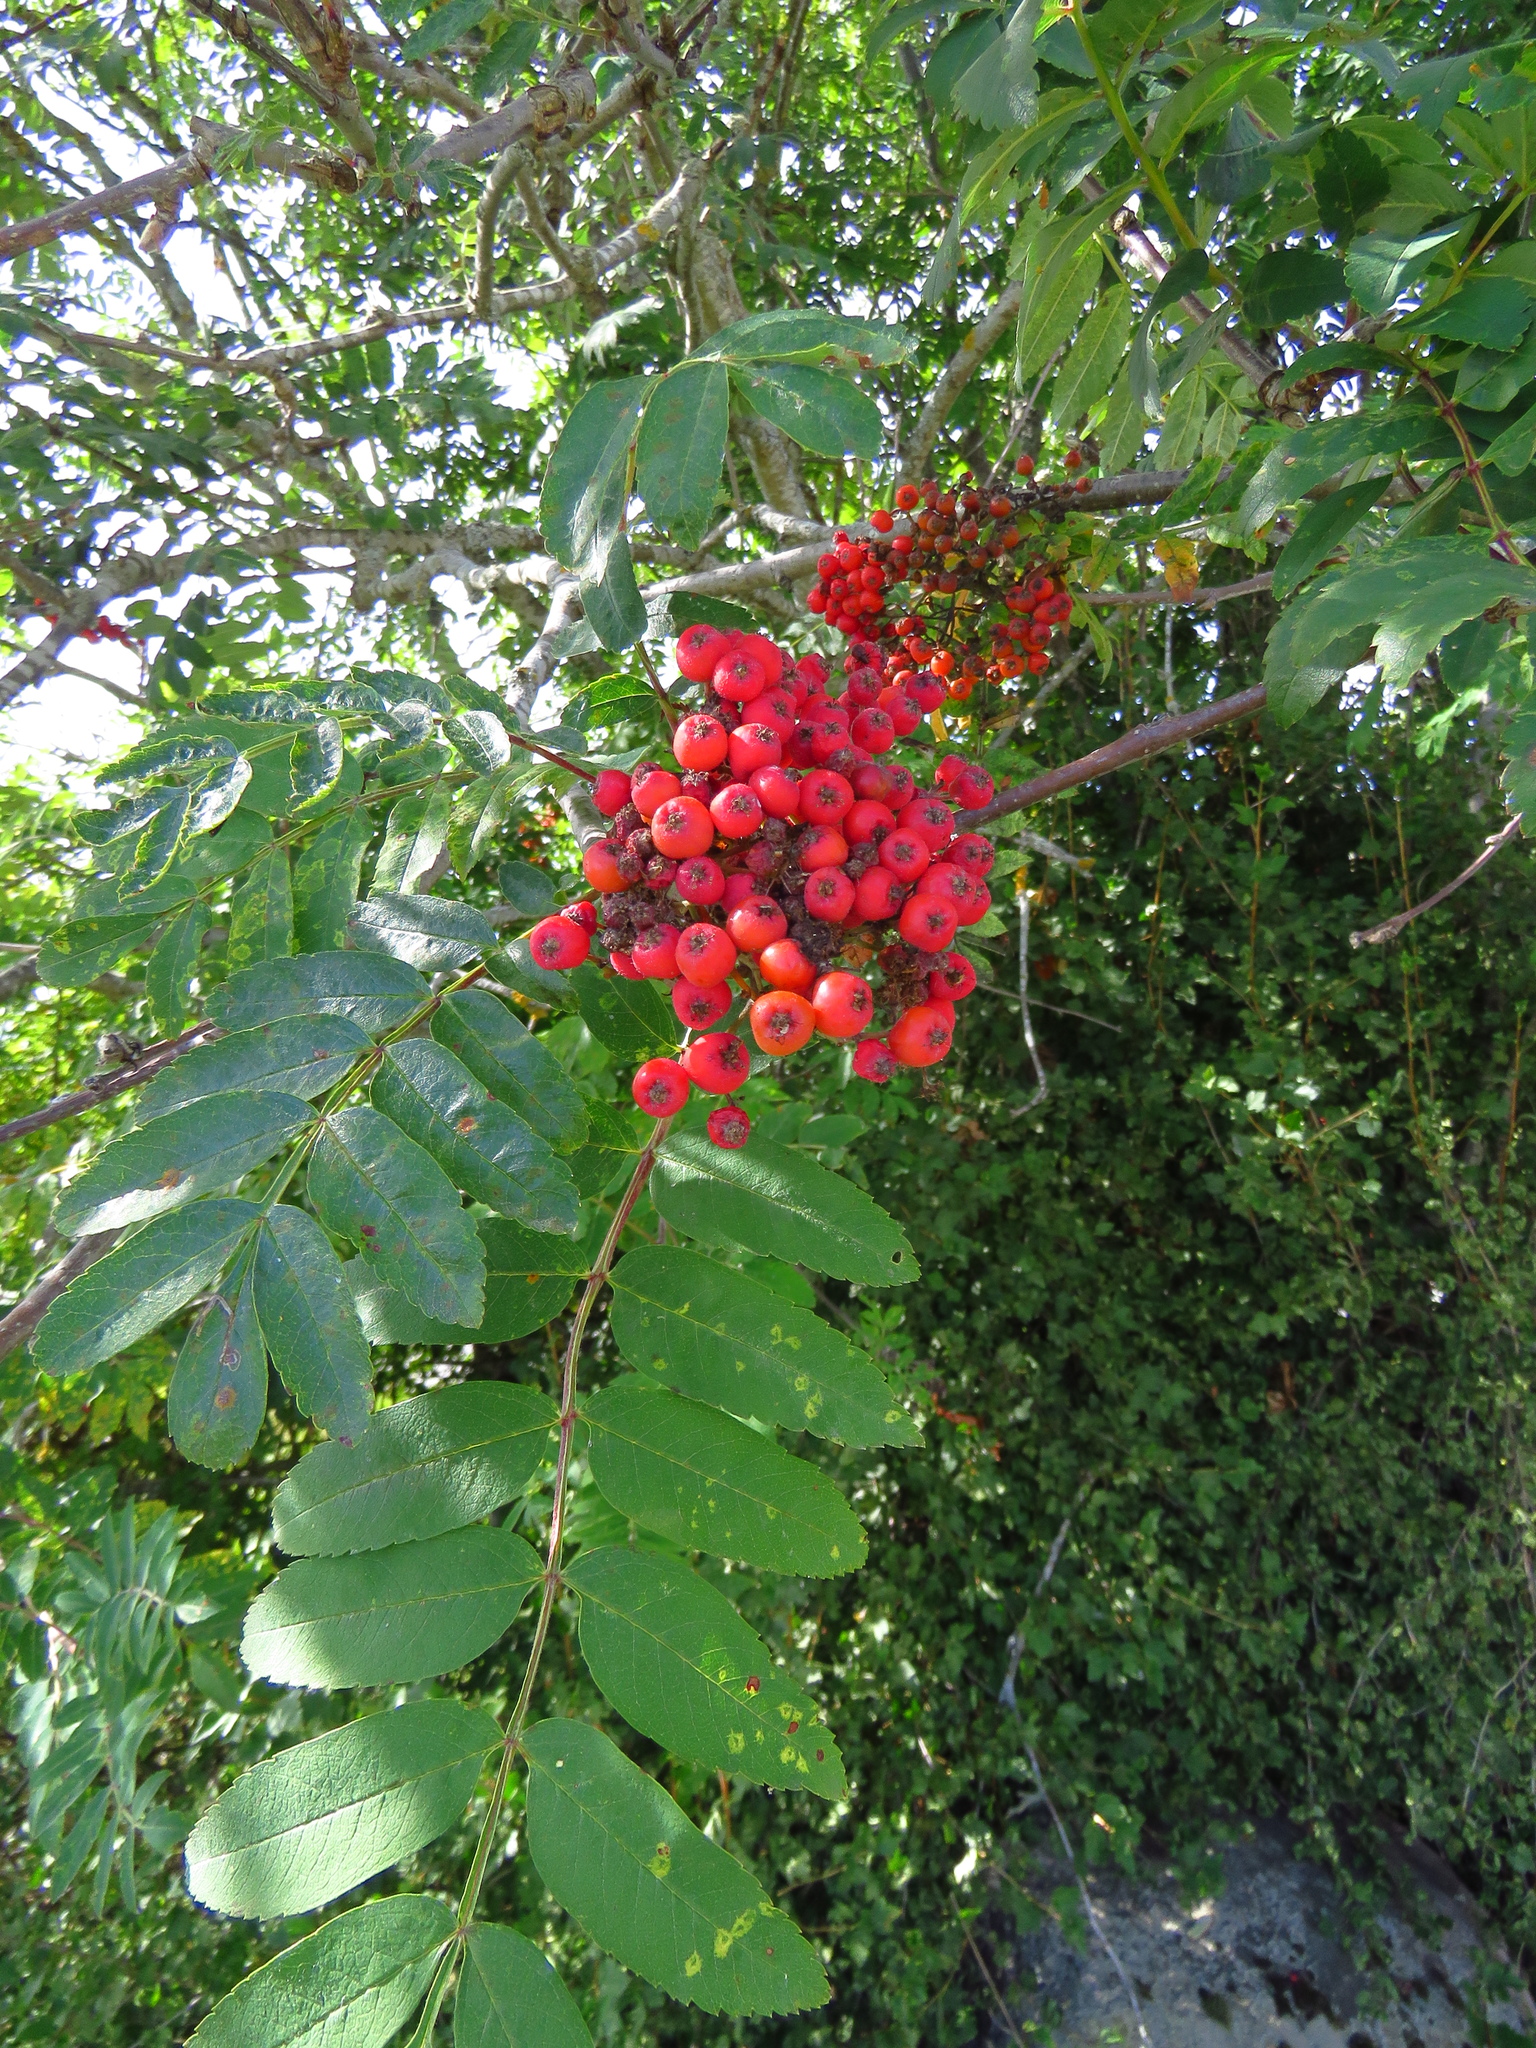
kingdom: Plantae
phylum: Tracheophyta
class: Magnoliopsida
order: Rosales
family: Rosaceae
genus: Sorbus
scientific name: Sorbus aucuparia
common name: Rowan
